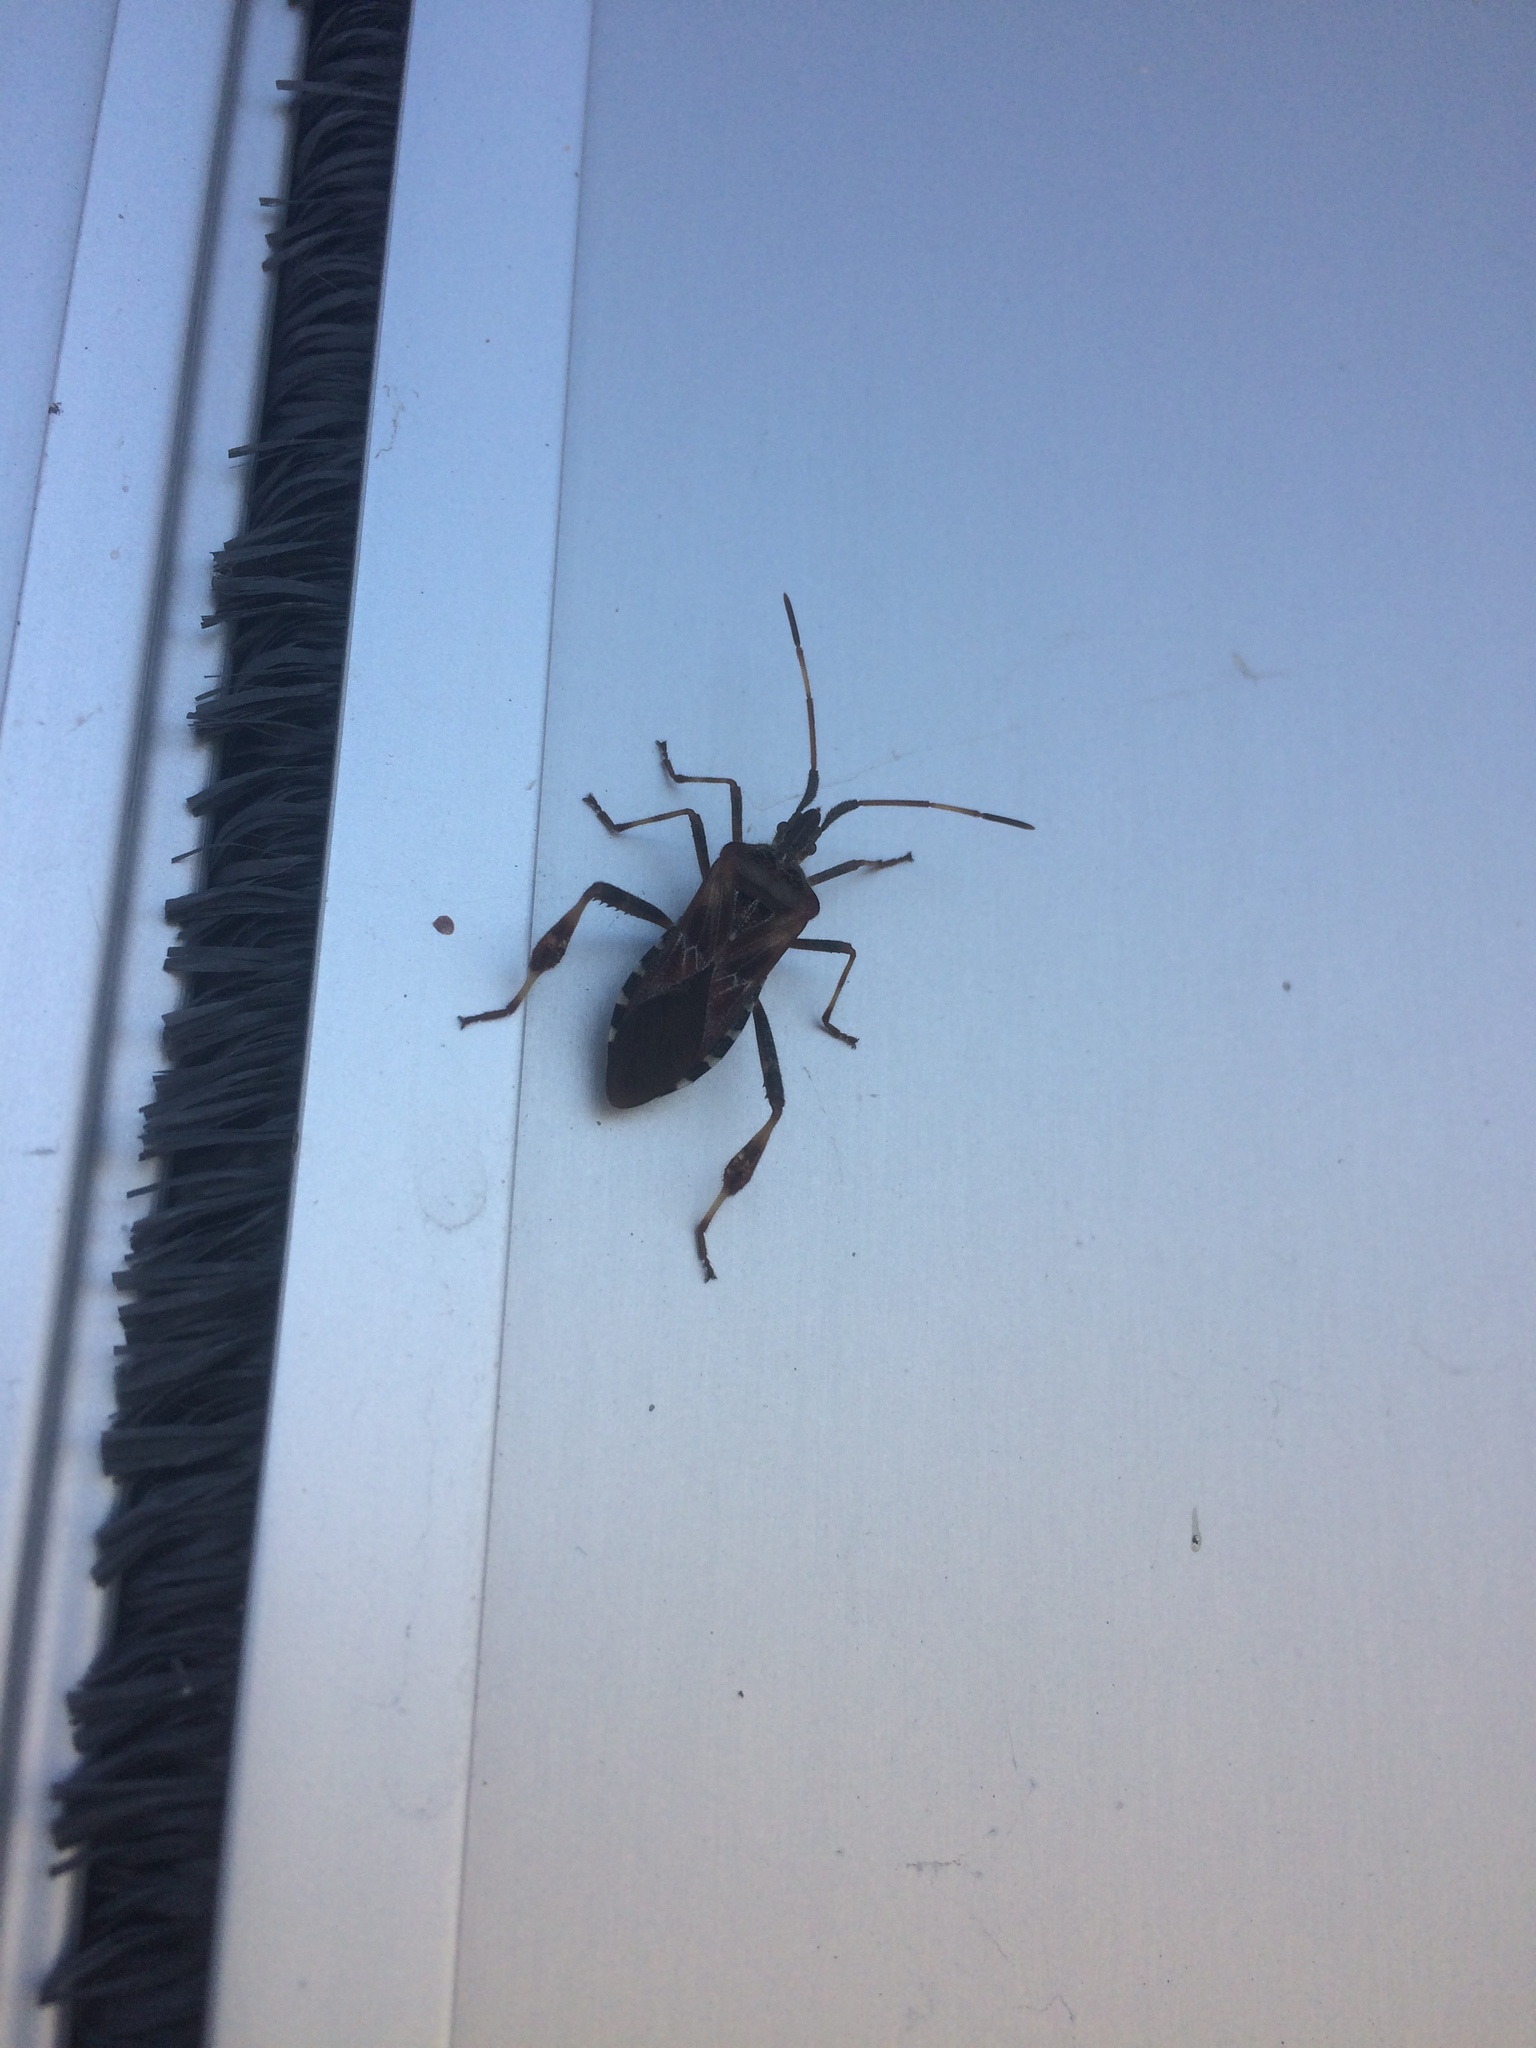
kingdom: Animalia
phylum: Arthropoda
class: Insecta
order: Hemiptera
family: Coreidae
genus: Leptoglossus
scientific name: Leptoglossus occidentalis
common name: Western conifer-seed bug
